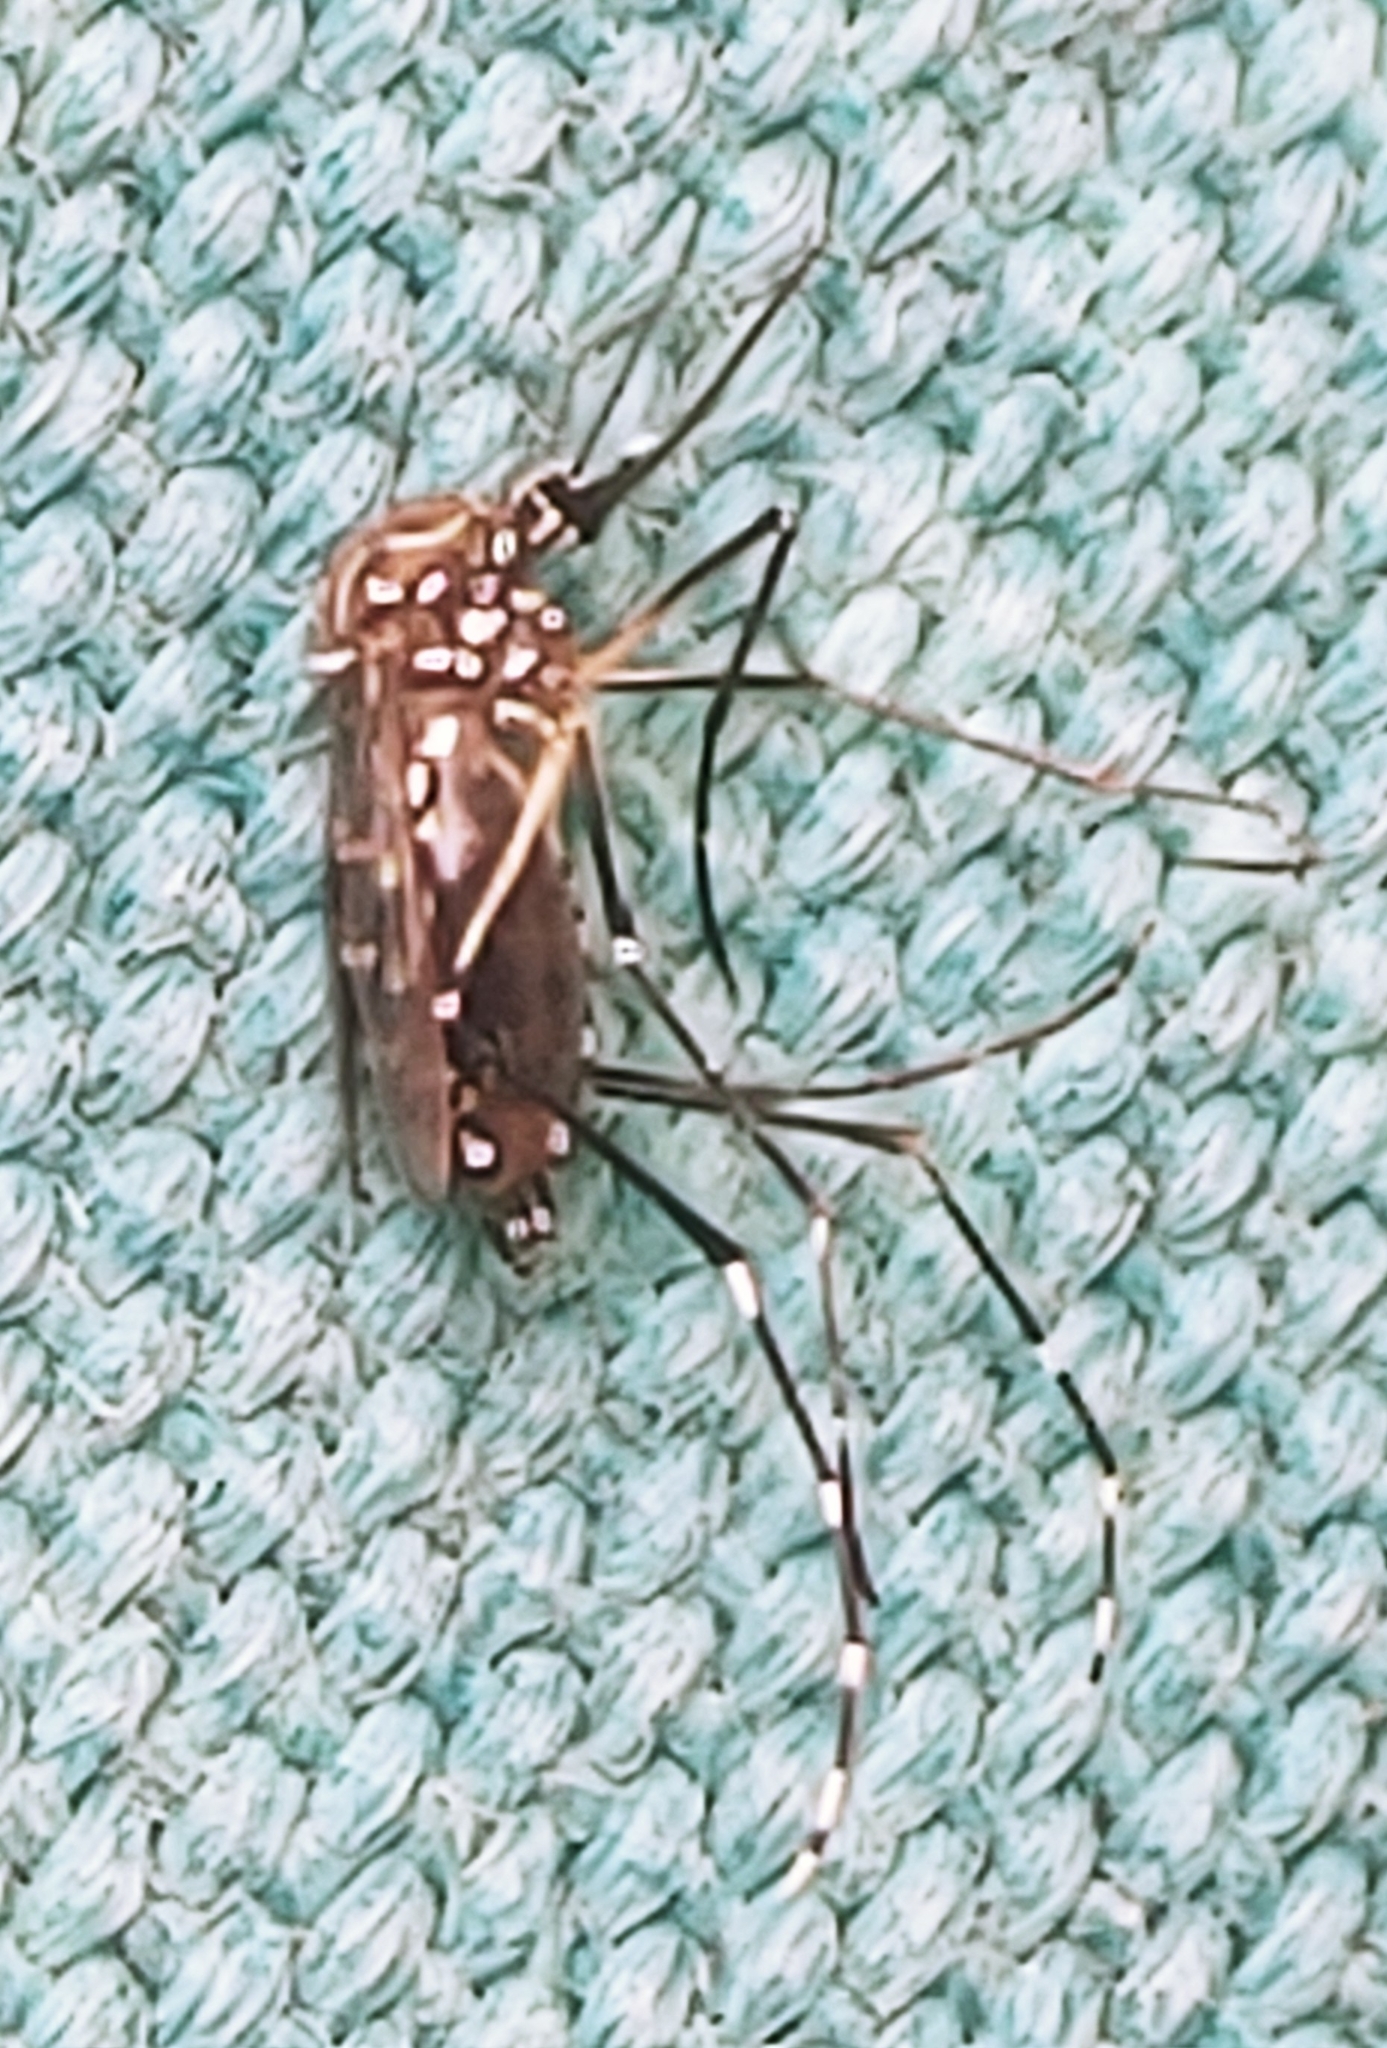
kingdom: Animalia
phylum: Arthropoda
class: Insecta
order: Diptera
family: Culicidae
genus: Aedes
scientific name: Aedes aegypti
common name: Yellow fever mosquito
